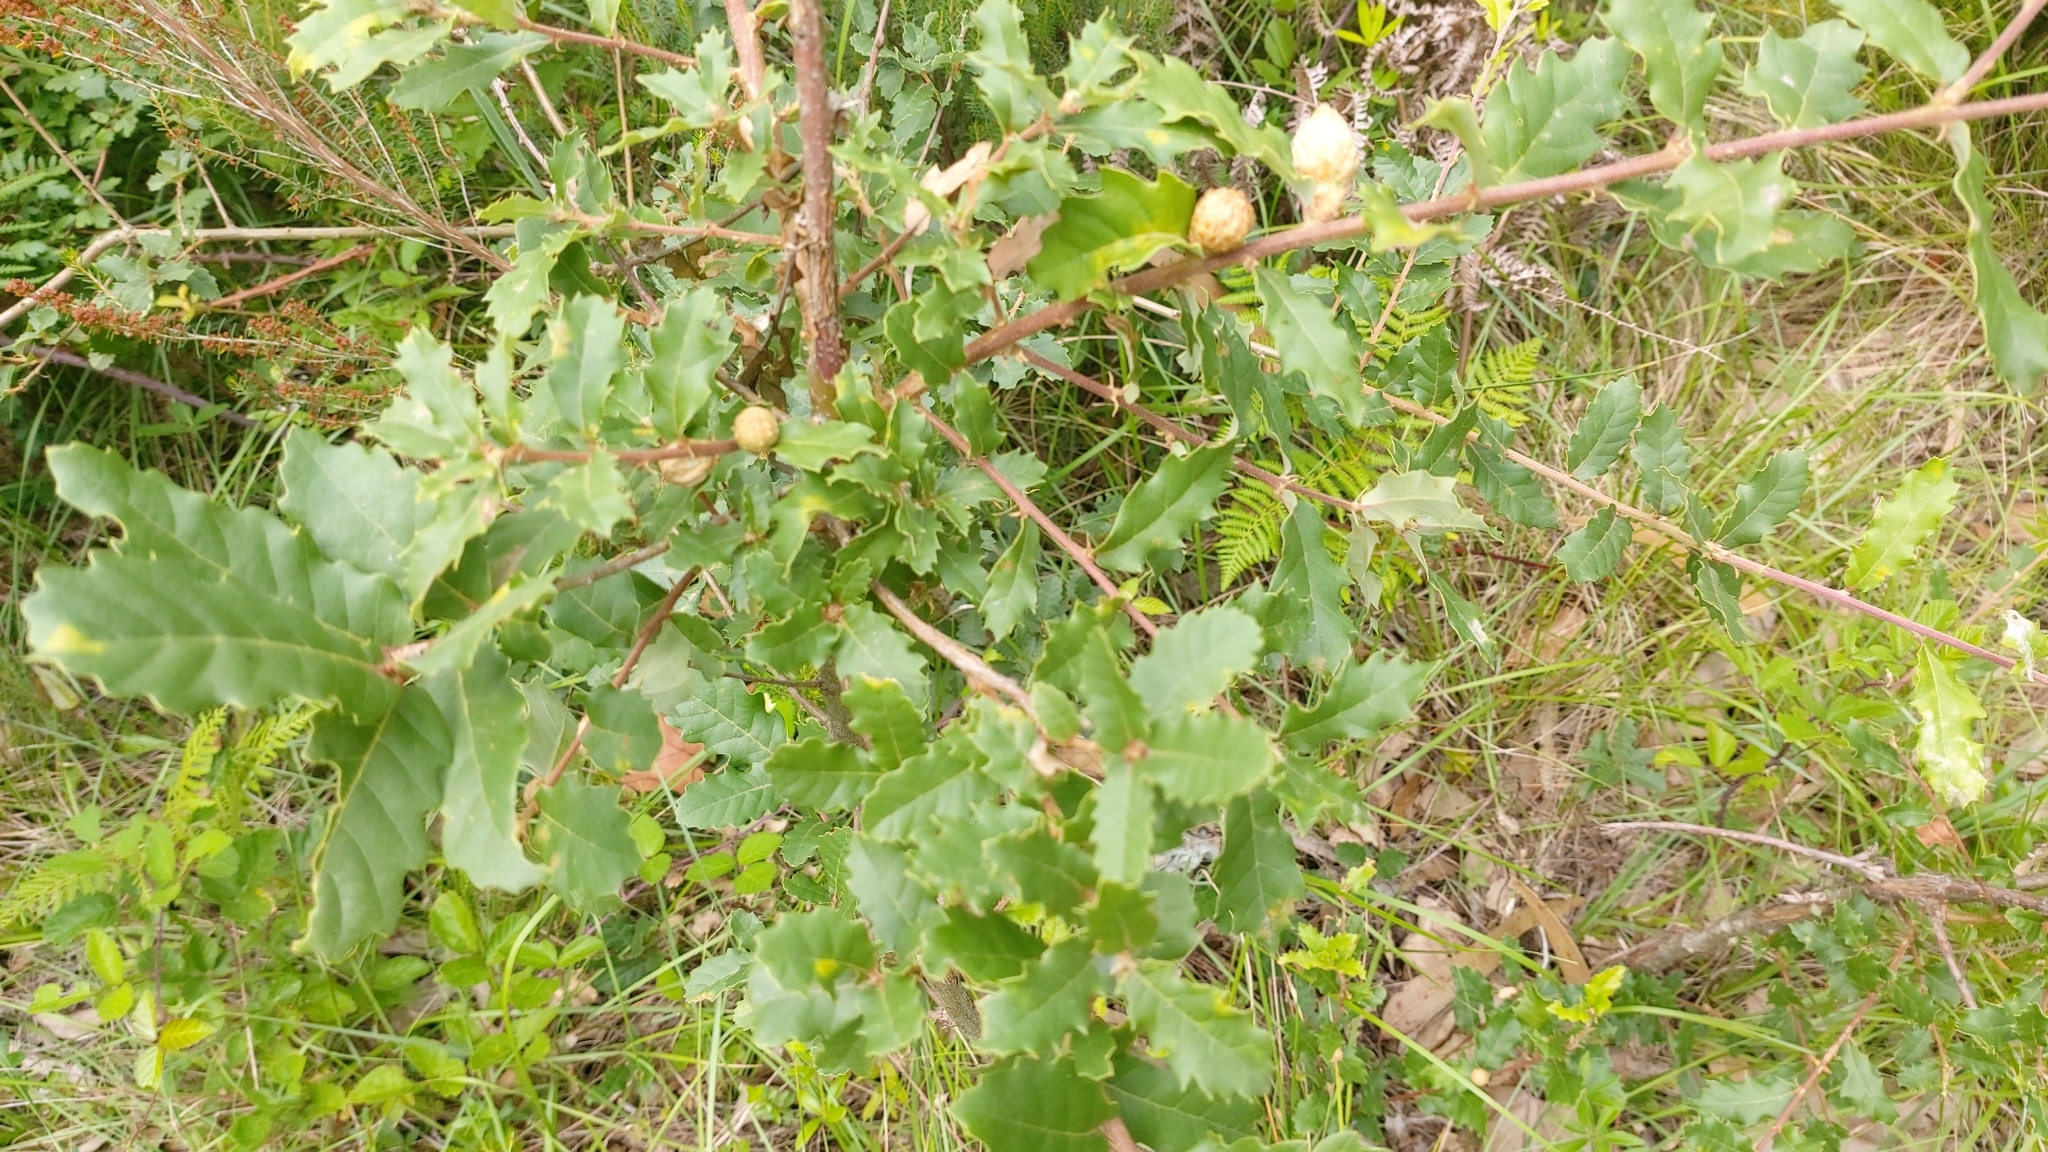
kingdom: Animalia
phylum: Arthropoda
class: Insecta
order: Hymenoptera
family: Cynipidae
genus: Andricus
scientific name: Andricus foecundatrix
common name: Artichoke gall
